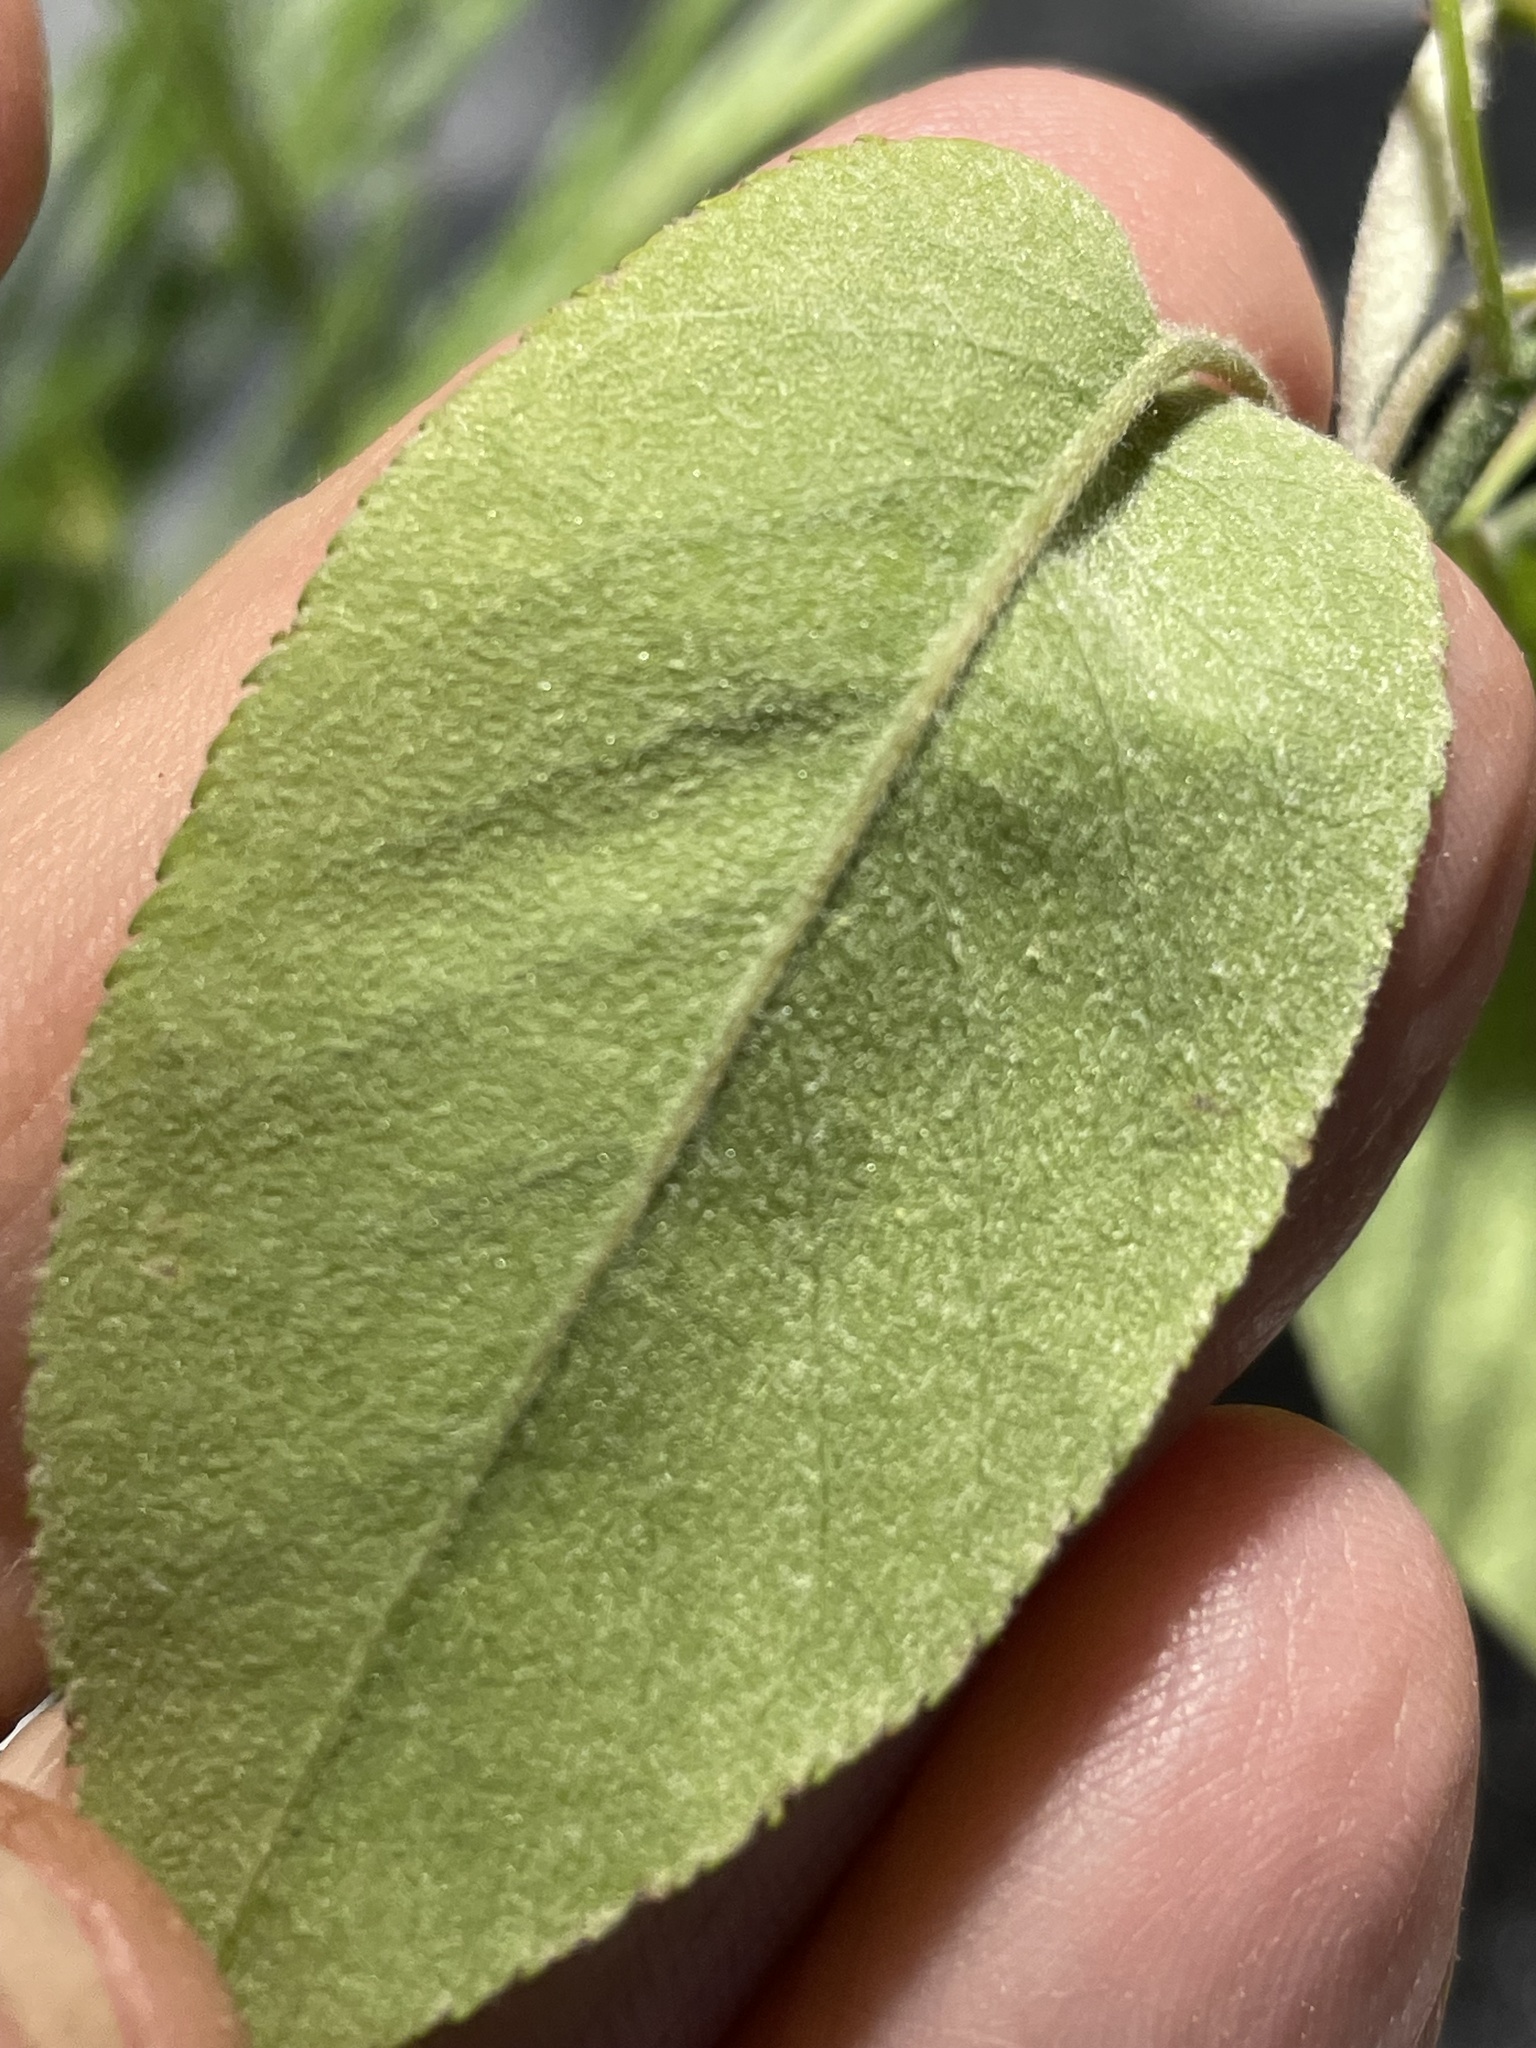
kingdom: Plantae
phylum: Tracheophyta
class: Magnoliopsida
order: Rosales
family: Rosaceae
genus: Amelanchier
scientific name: Amelanchier arborea
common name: Downy serviceberry
